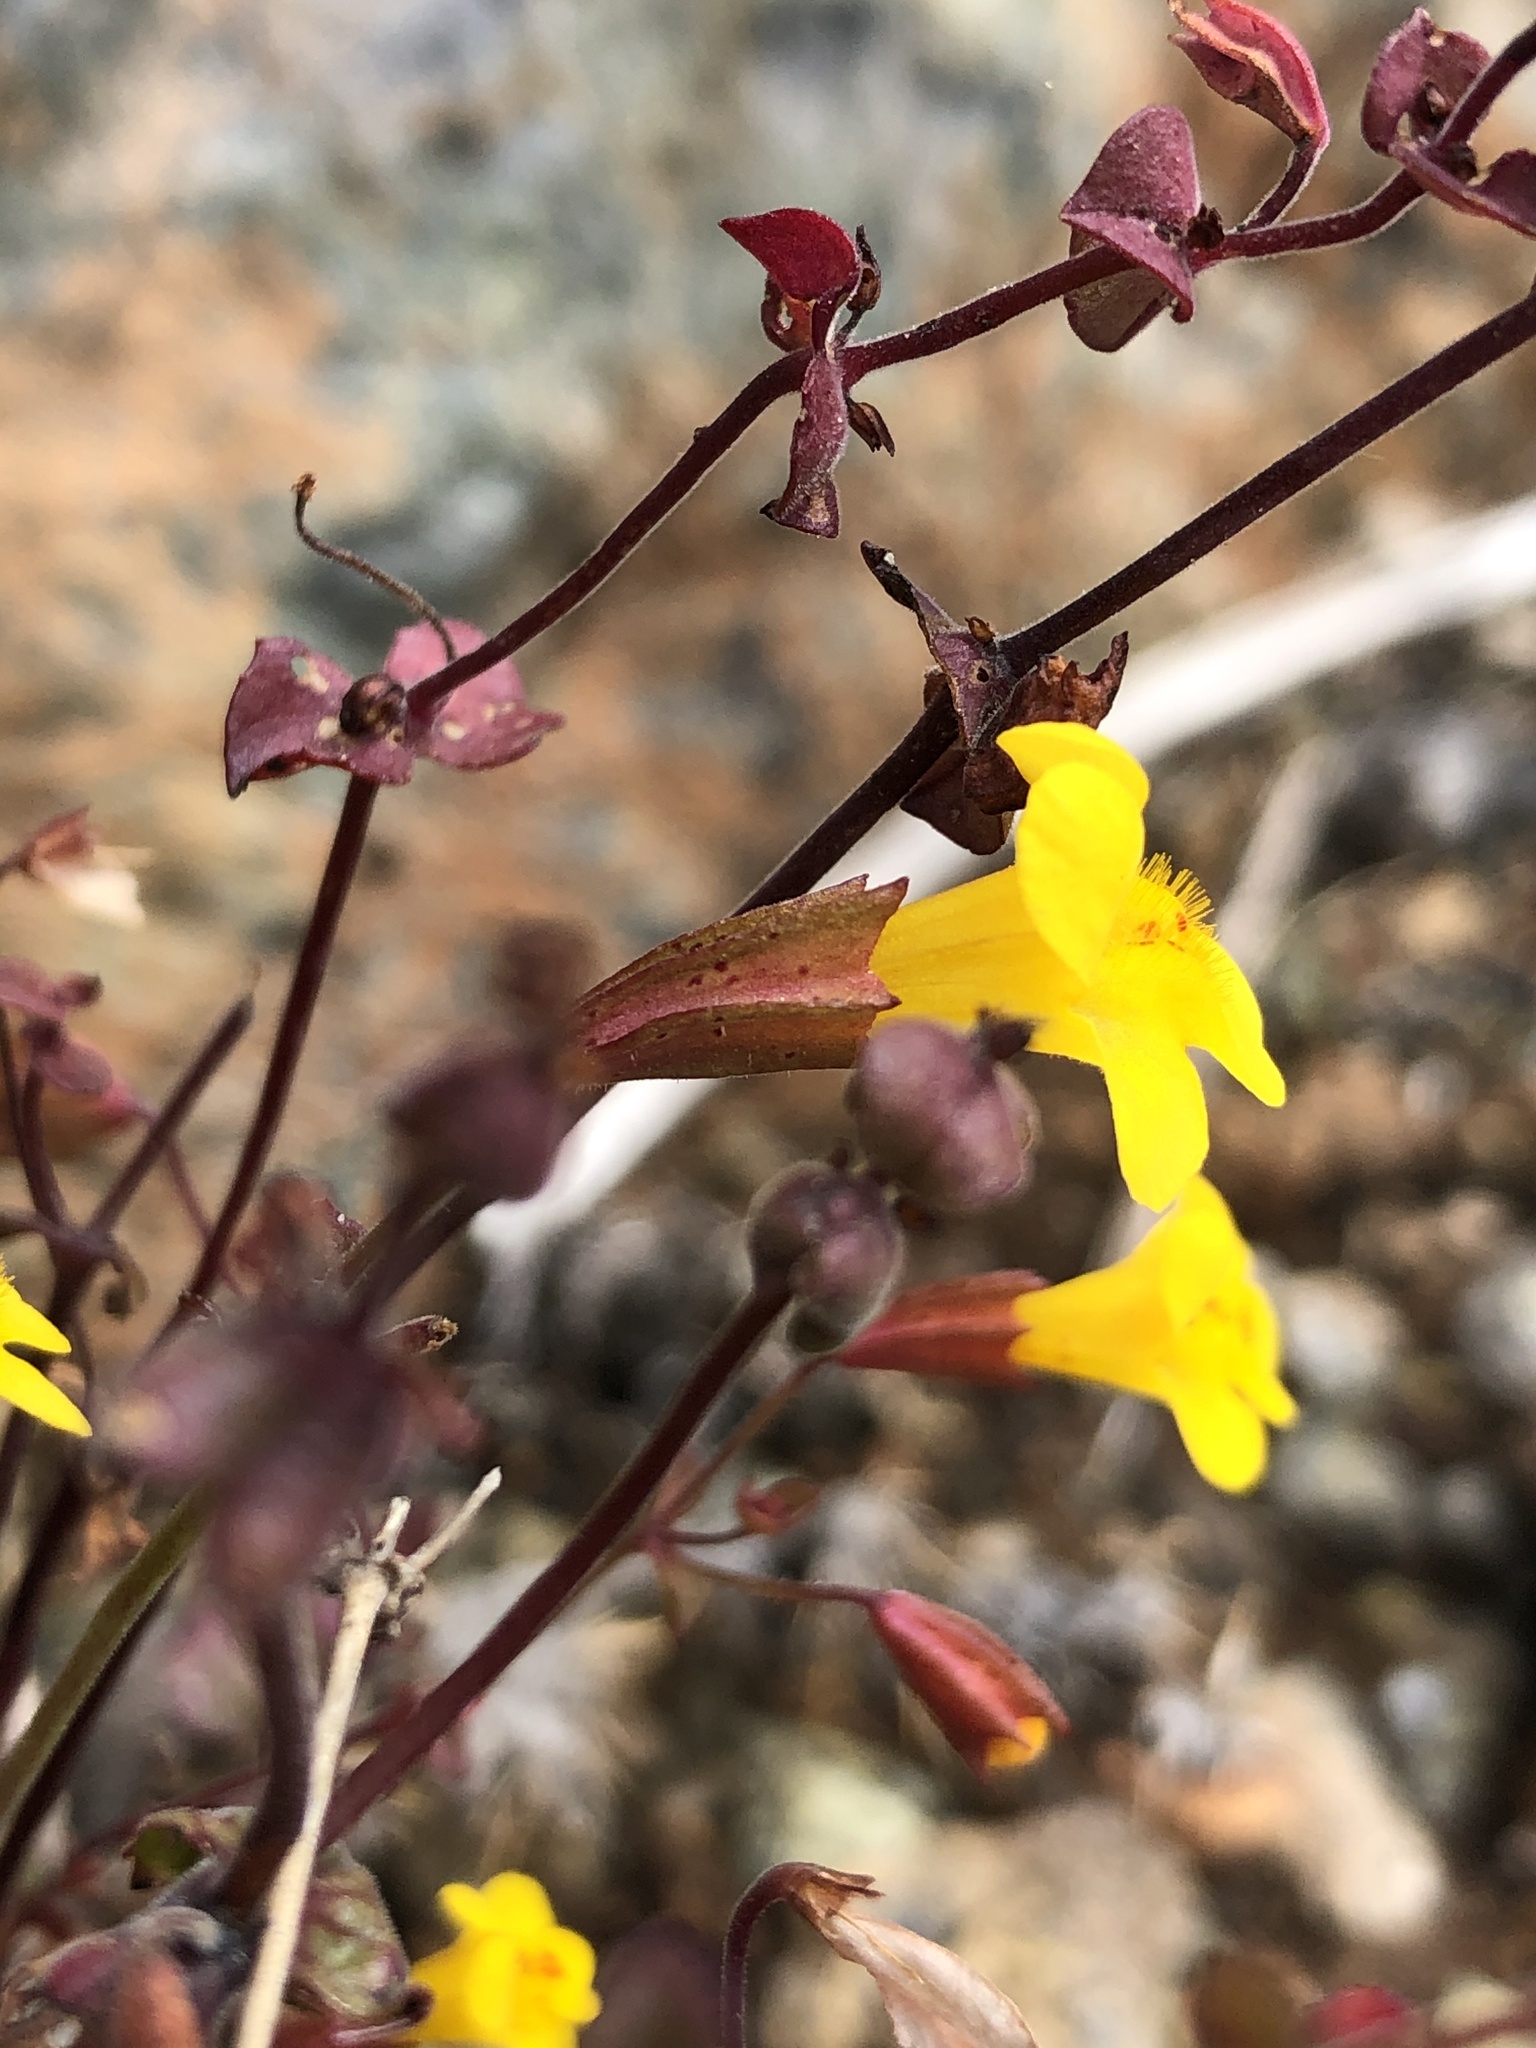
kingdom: Plantae
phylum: Tracheophyta
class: Magnoliopsida
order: Lamiales
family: Phrymaceae
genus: Erythranthe
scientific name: Erythranthe serpentinicola
